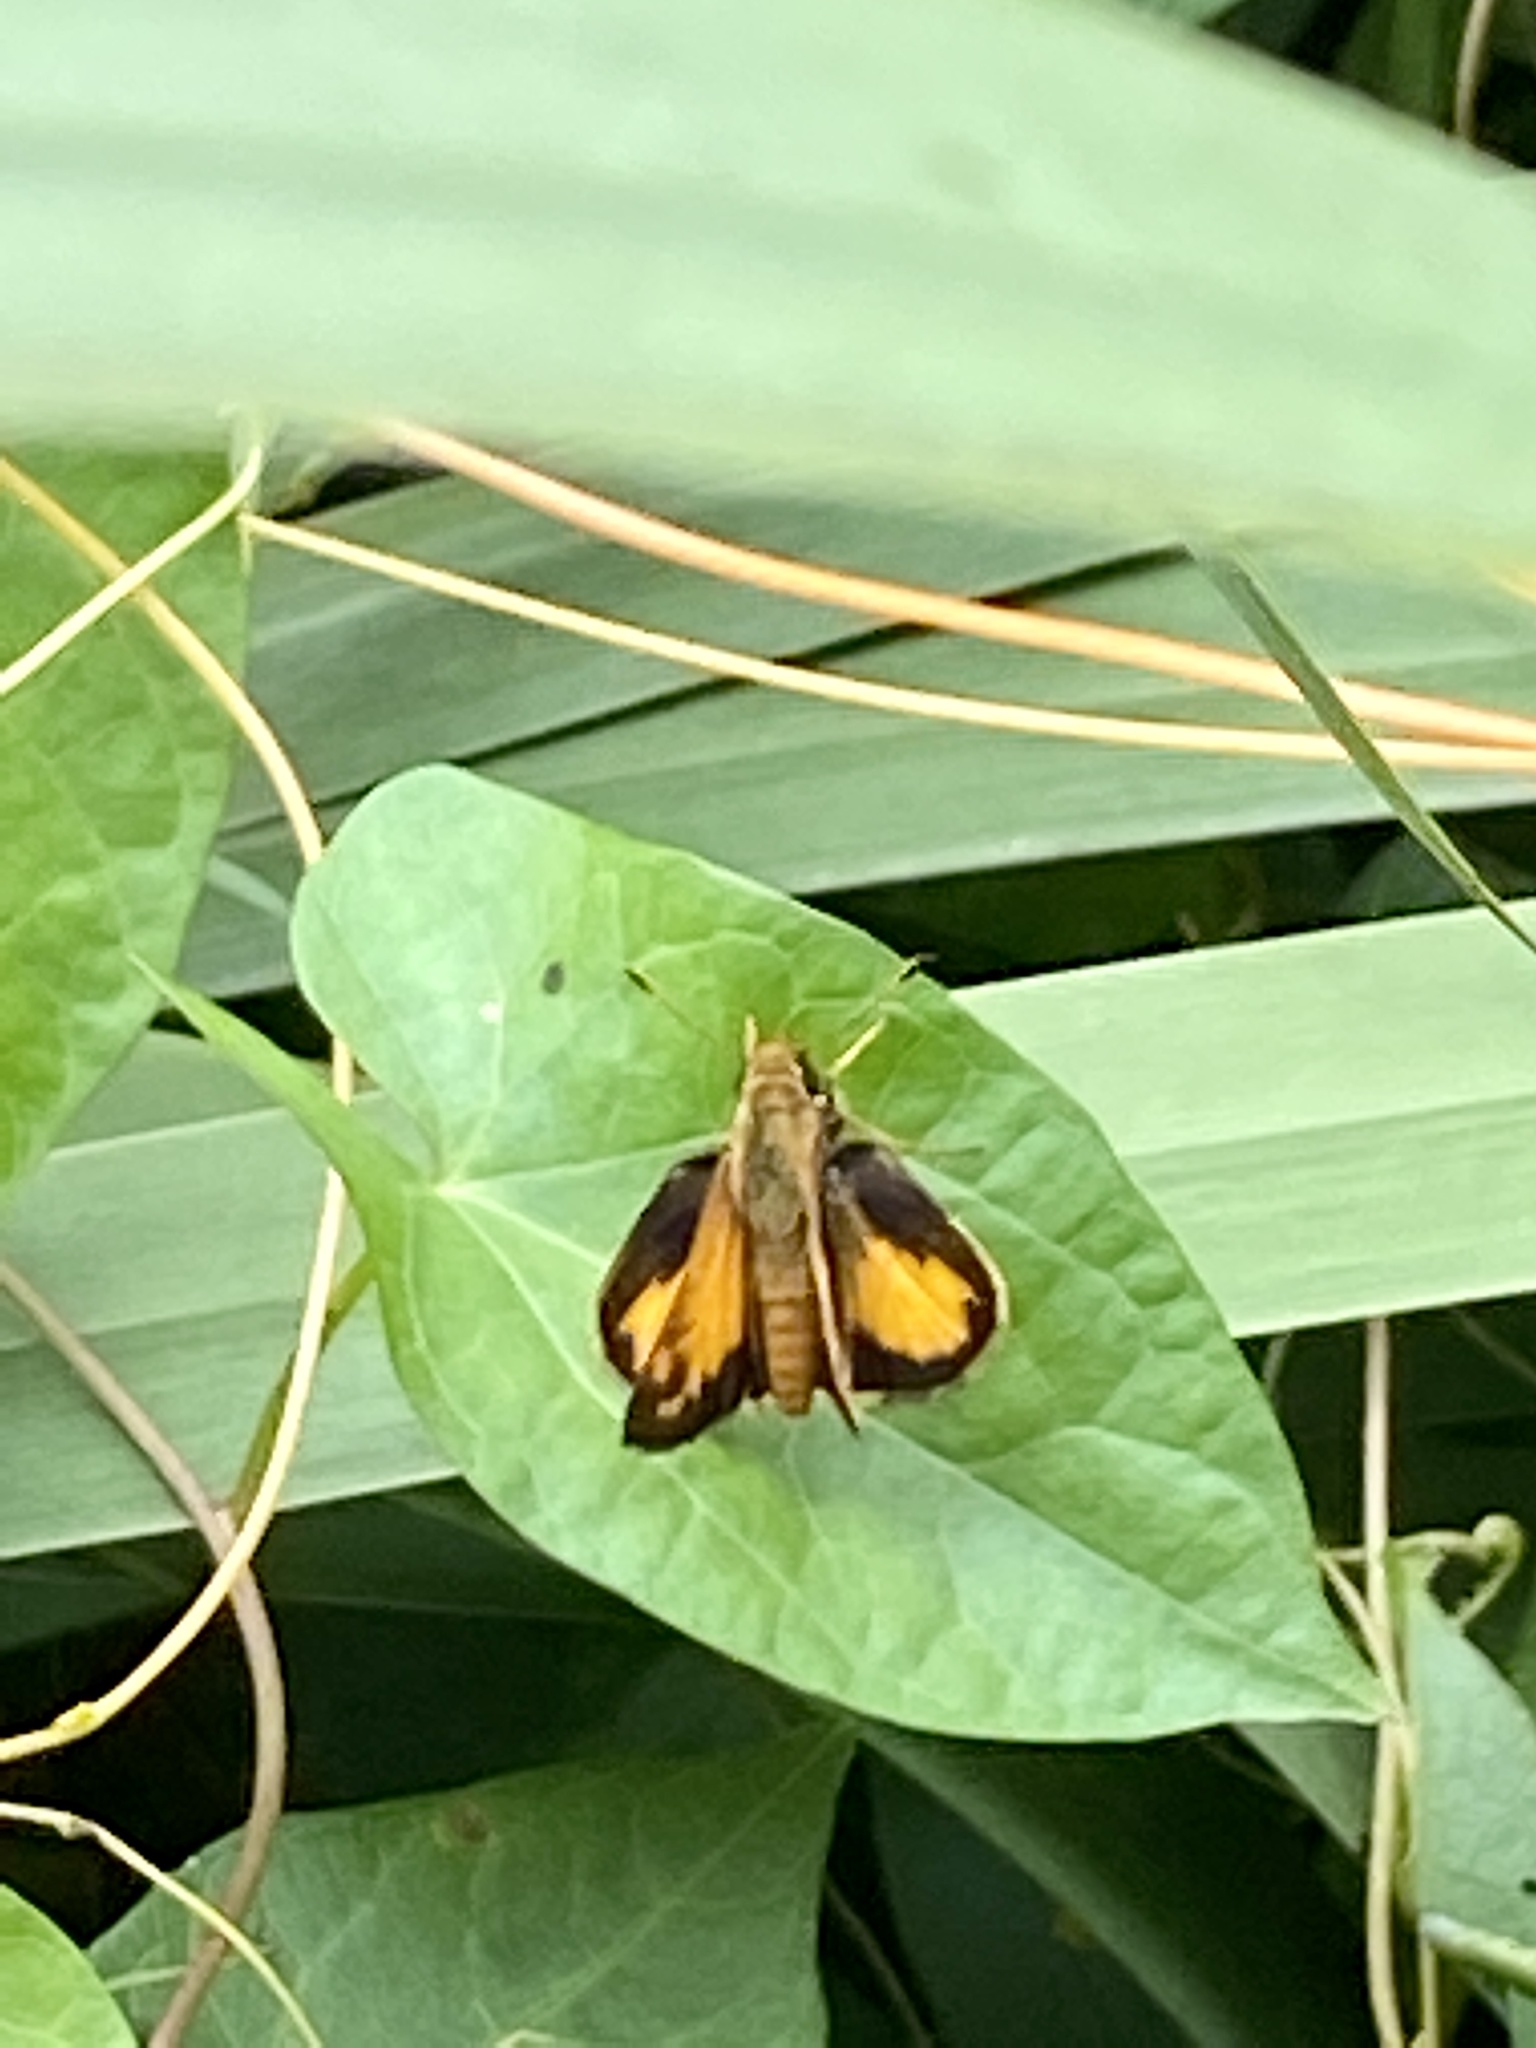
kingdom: Animalia
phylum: Arthropoda
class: Insecta
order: Lepidoptera
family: Hesperiidae
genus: Lon
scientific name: Lon zabulon
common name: Zabulon skipper
